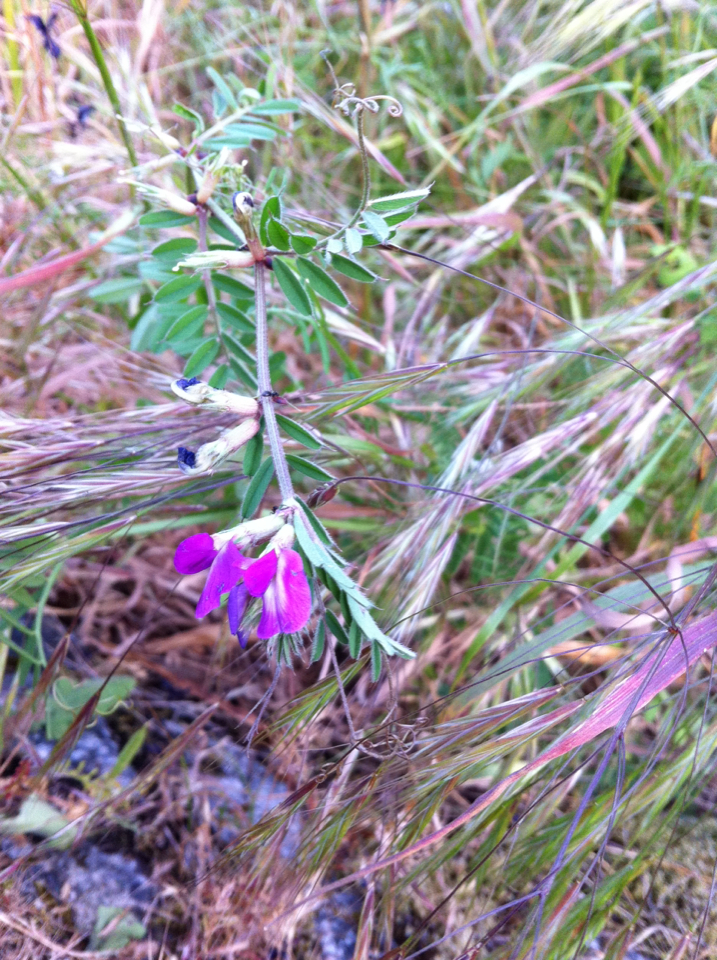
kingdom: Plantae
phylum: Tracheophyta
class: Magnoliopsida
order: Fabales
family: Fabaceae
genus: Vicia
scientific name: Vicia sativa
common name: Garden vetch
